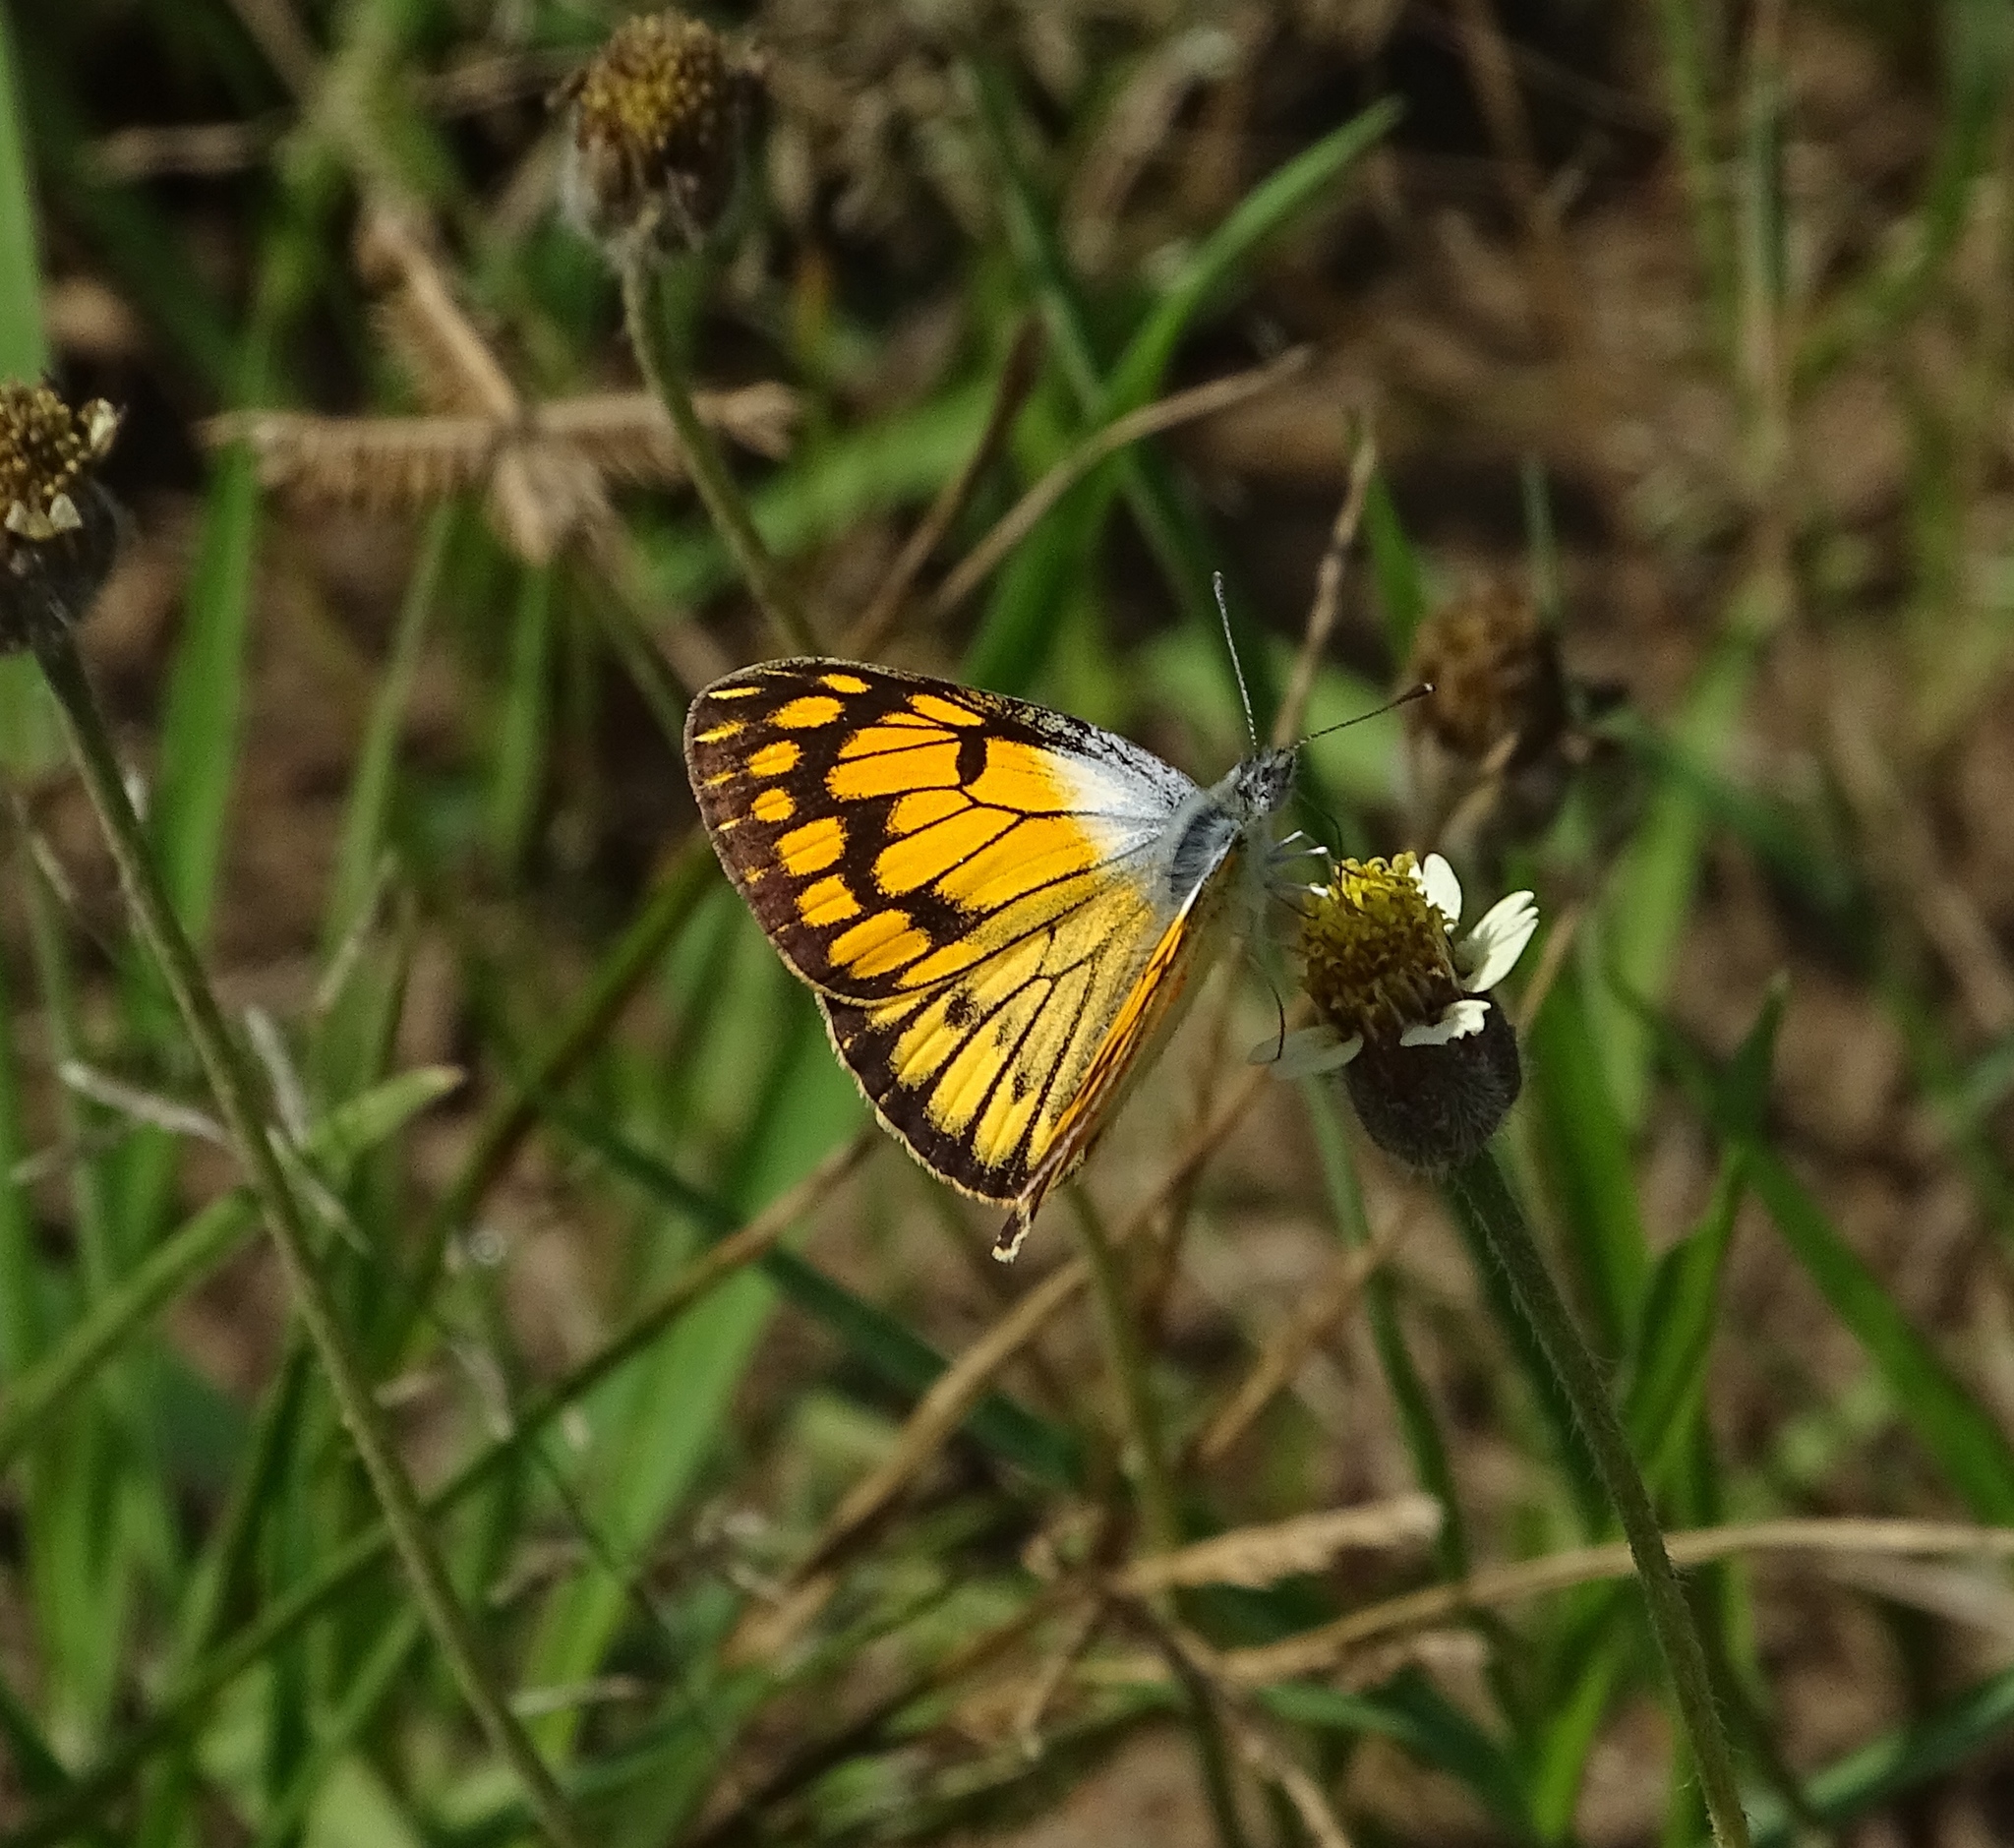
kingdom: Animalia
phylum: Arthropoda
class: Insecta
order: Lepidoptera
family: Pieridae
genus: Colotis
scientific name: Colotis aurigineus
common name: African golden arab
